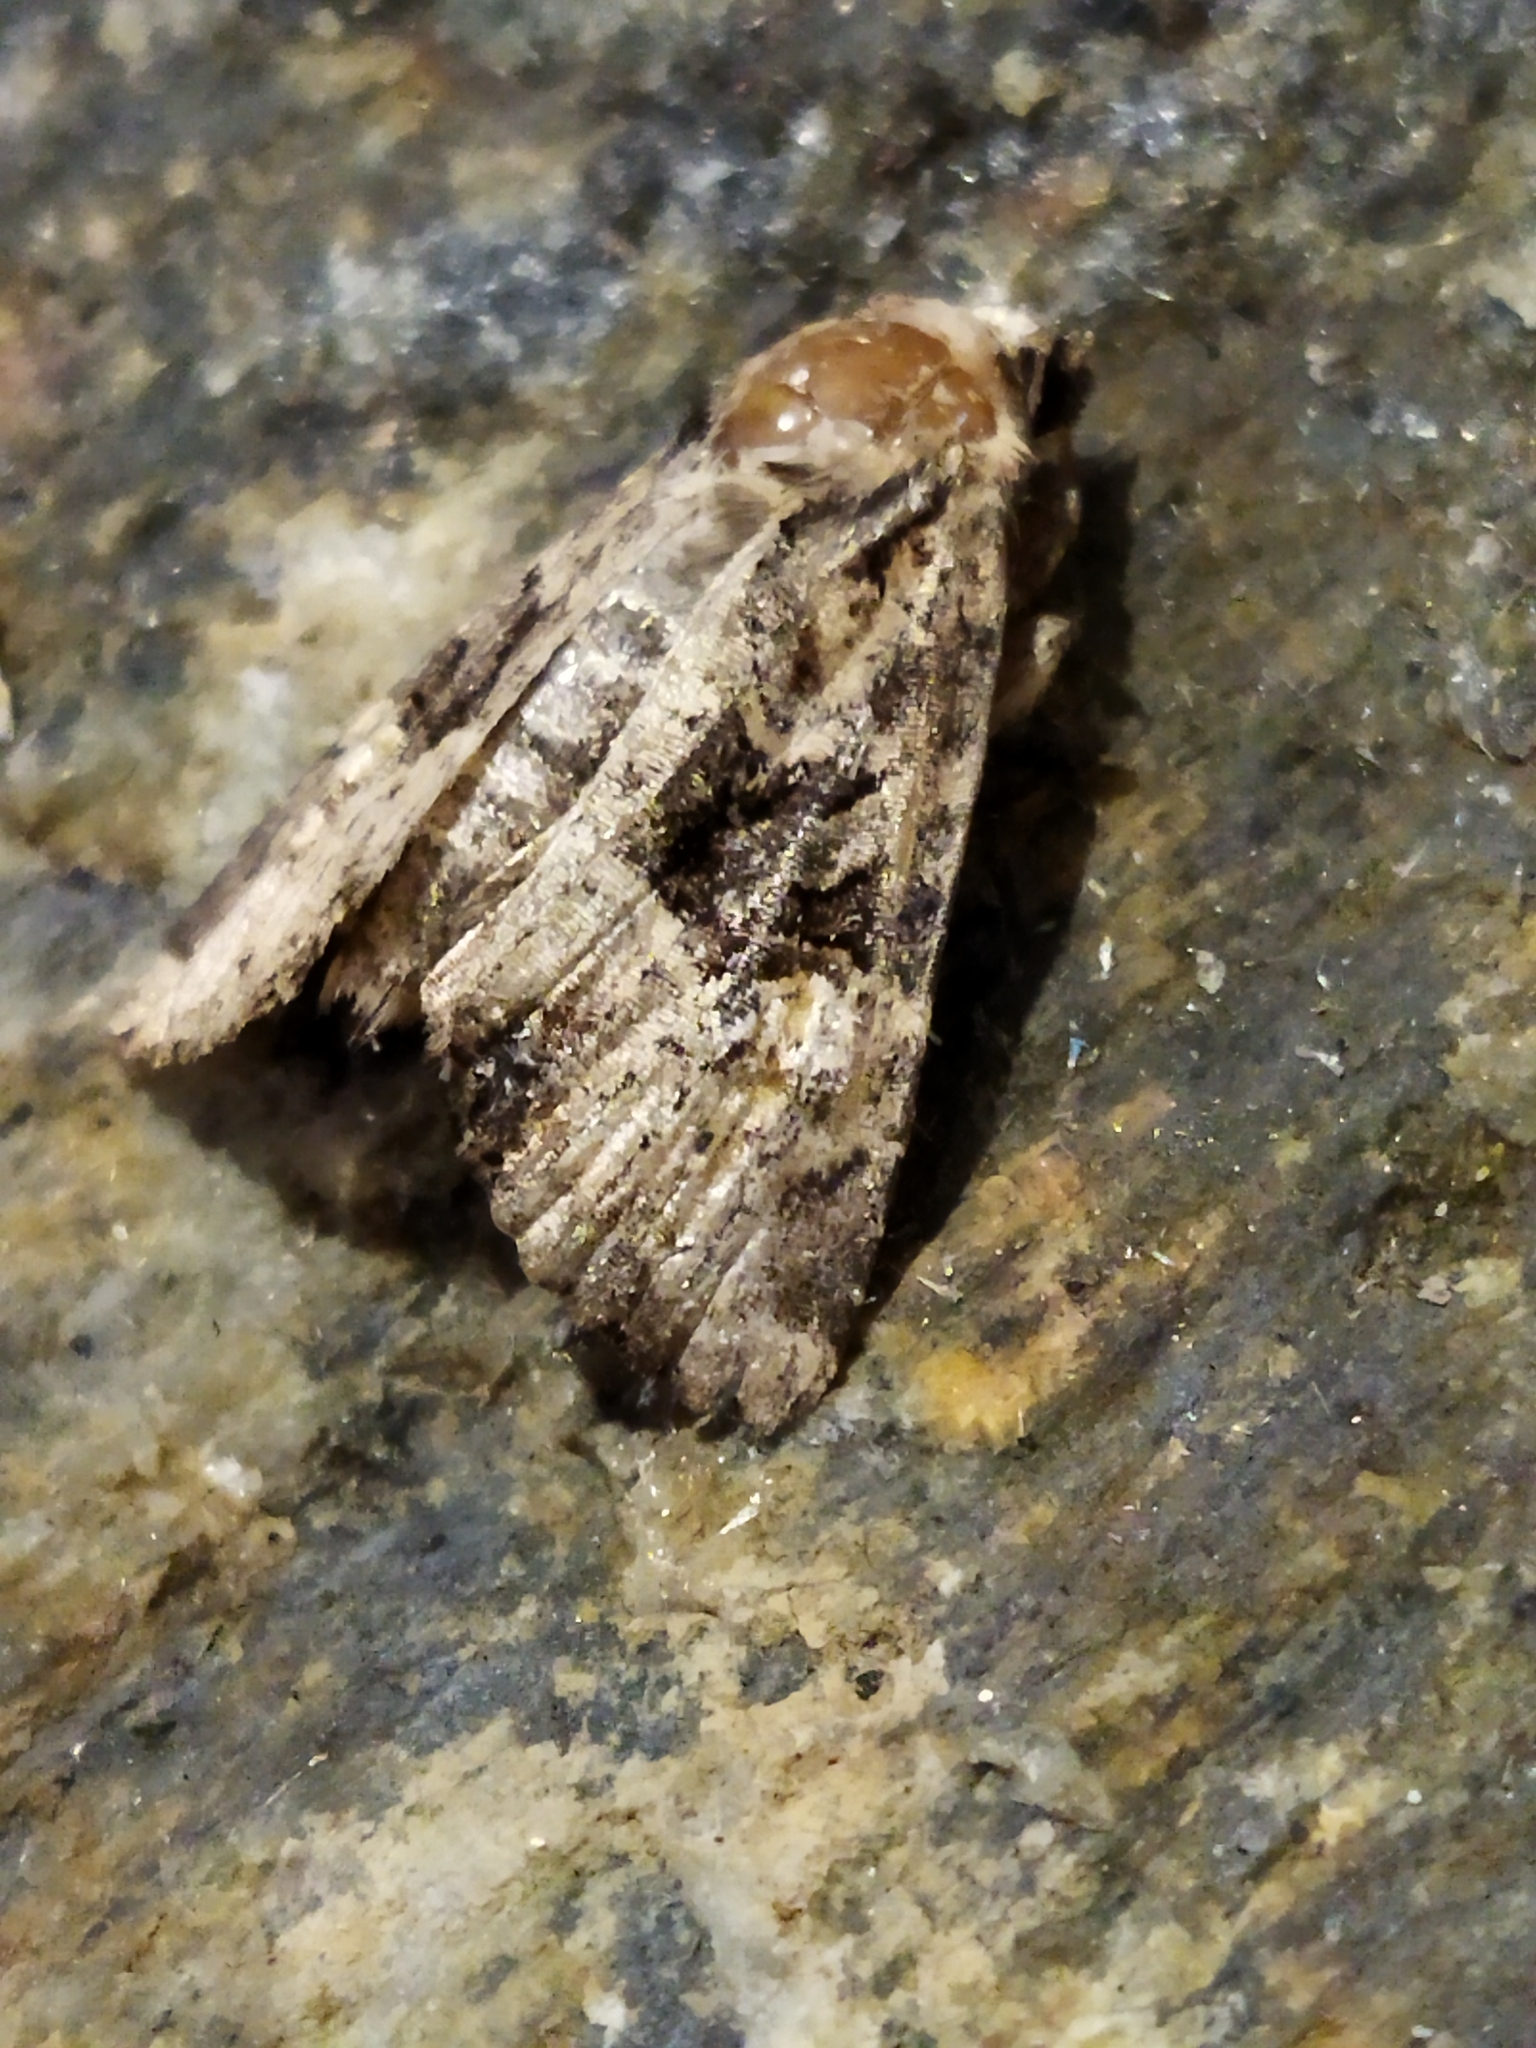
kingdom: Animalia
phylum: Arthropoda
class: Insecta
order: Lepidoptera
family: Noctuidae
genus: Mesapamea
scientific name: Mesapamea
